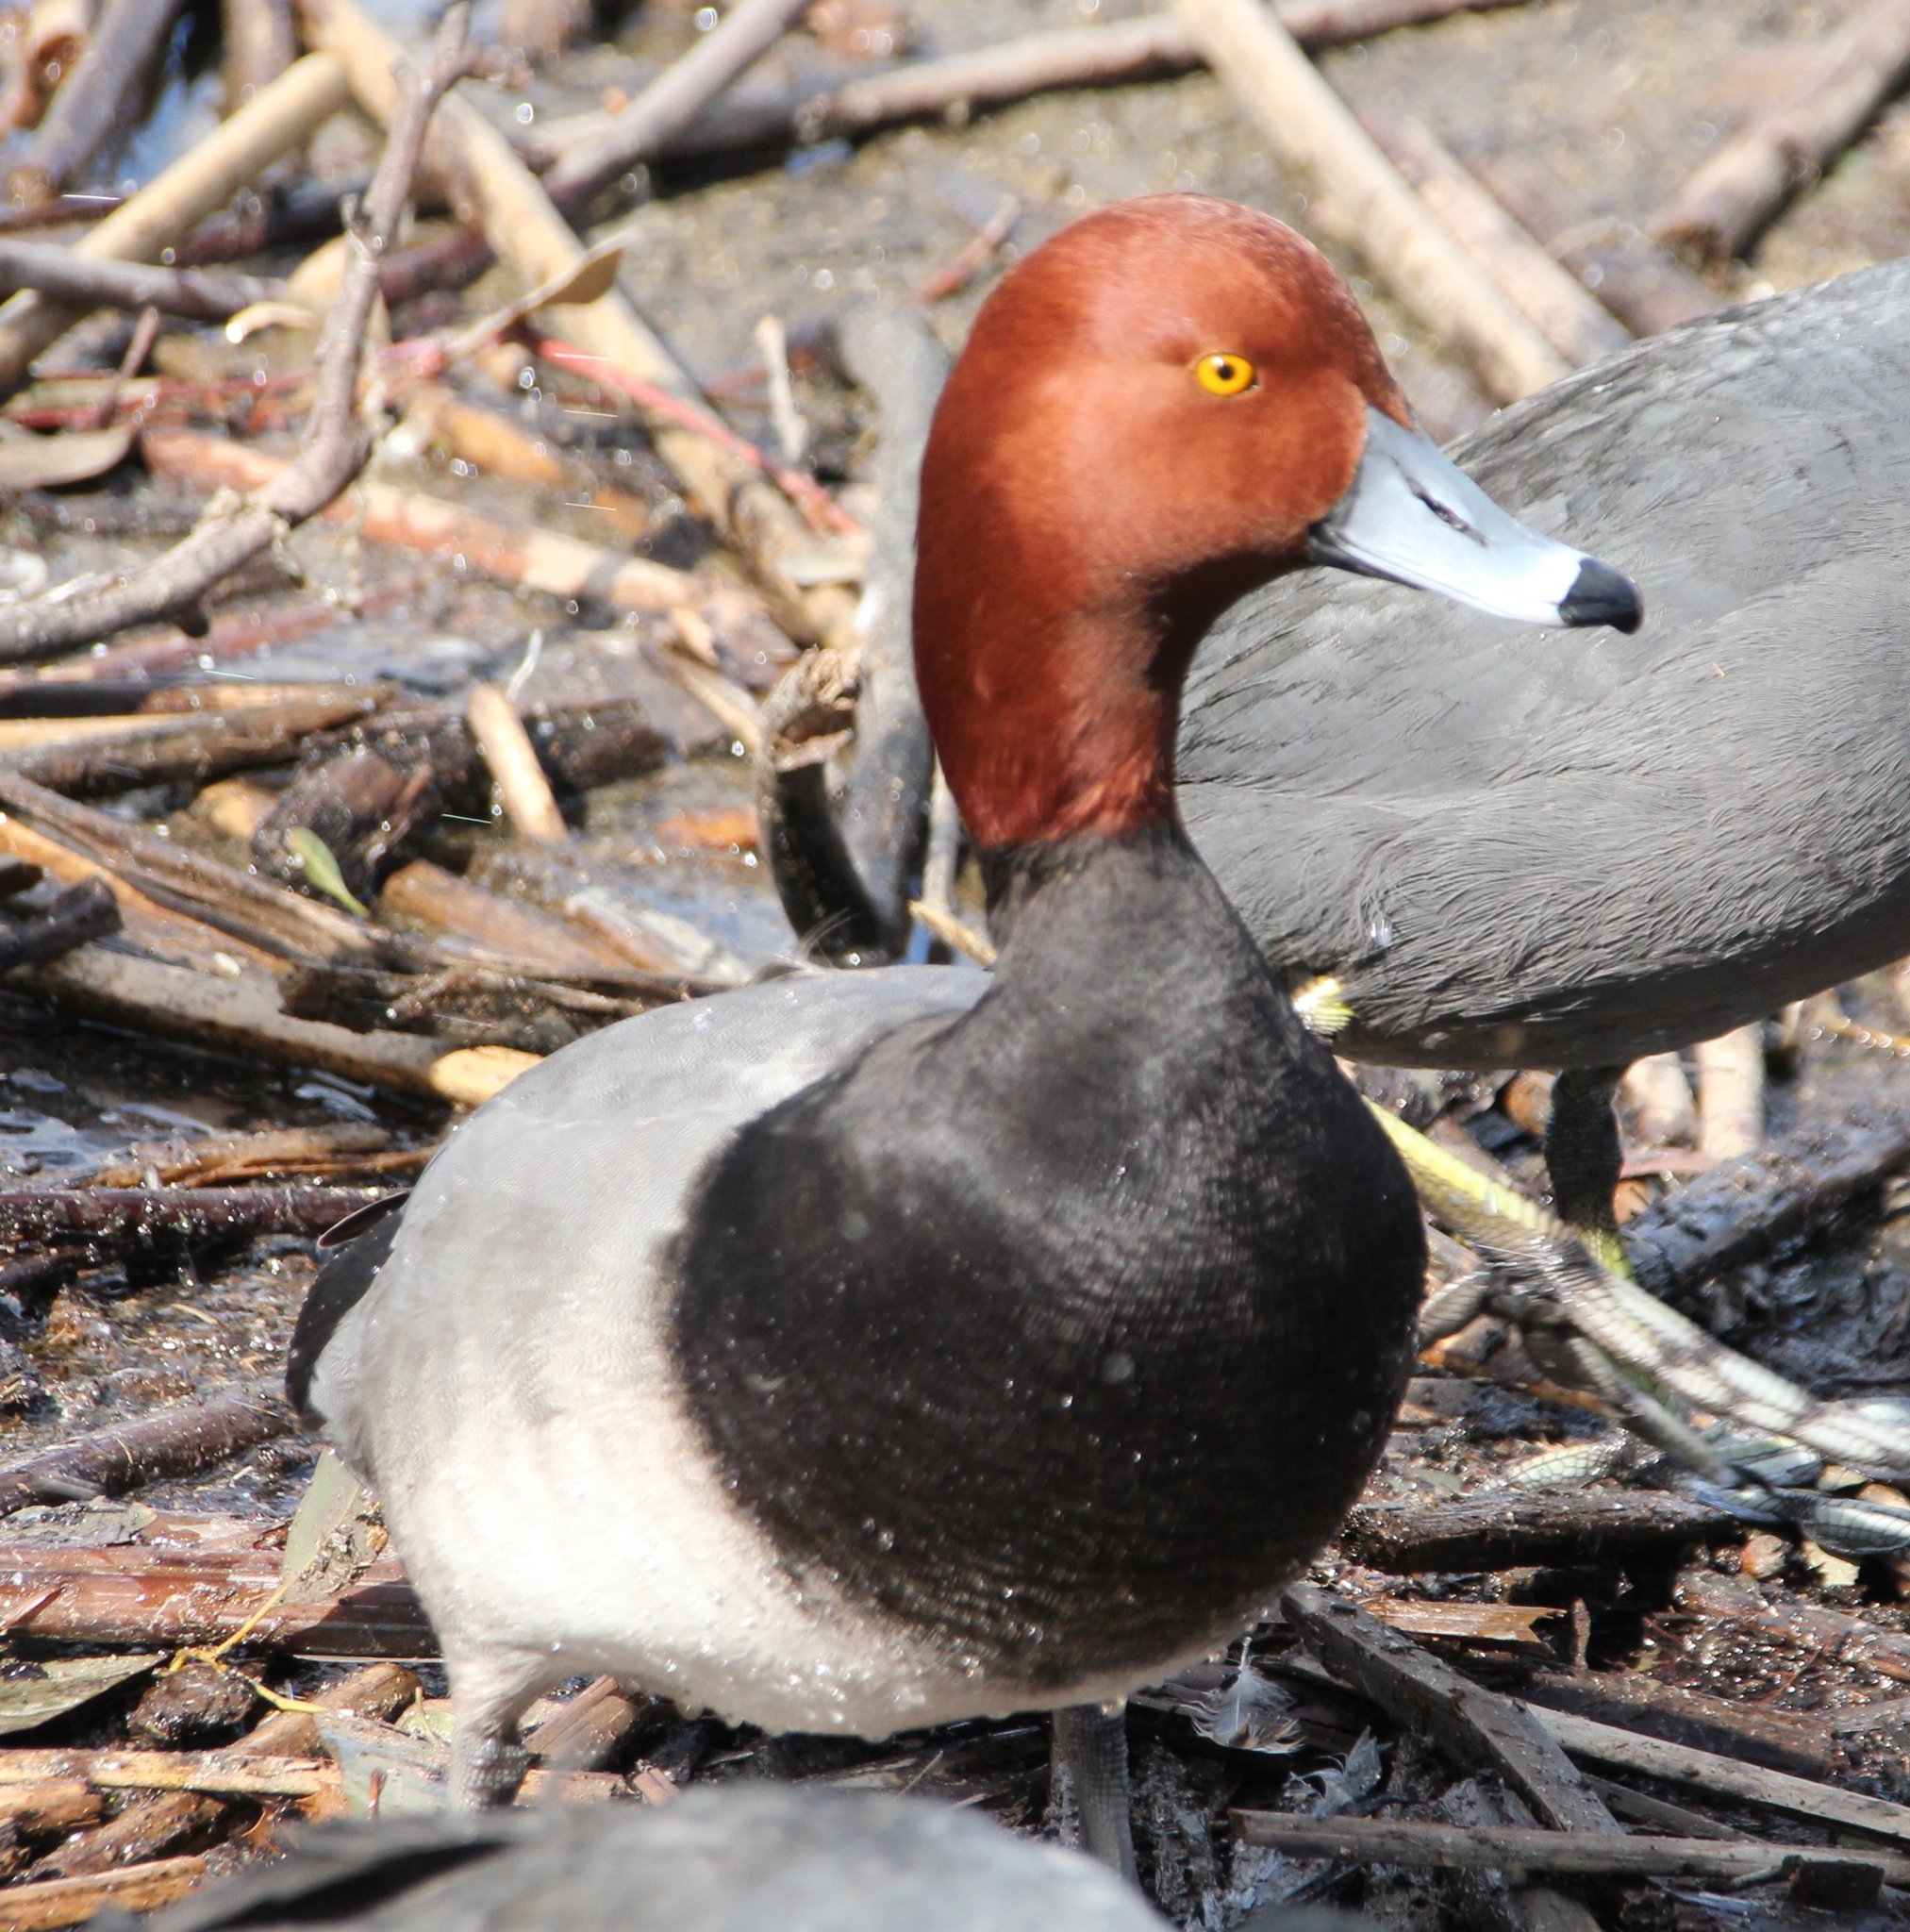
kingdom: Animalia
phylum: Chordata
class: Aves
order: Anseriformes
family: Anatidae
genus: Aythya
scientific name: Aythya americana
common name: Redhead
